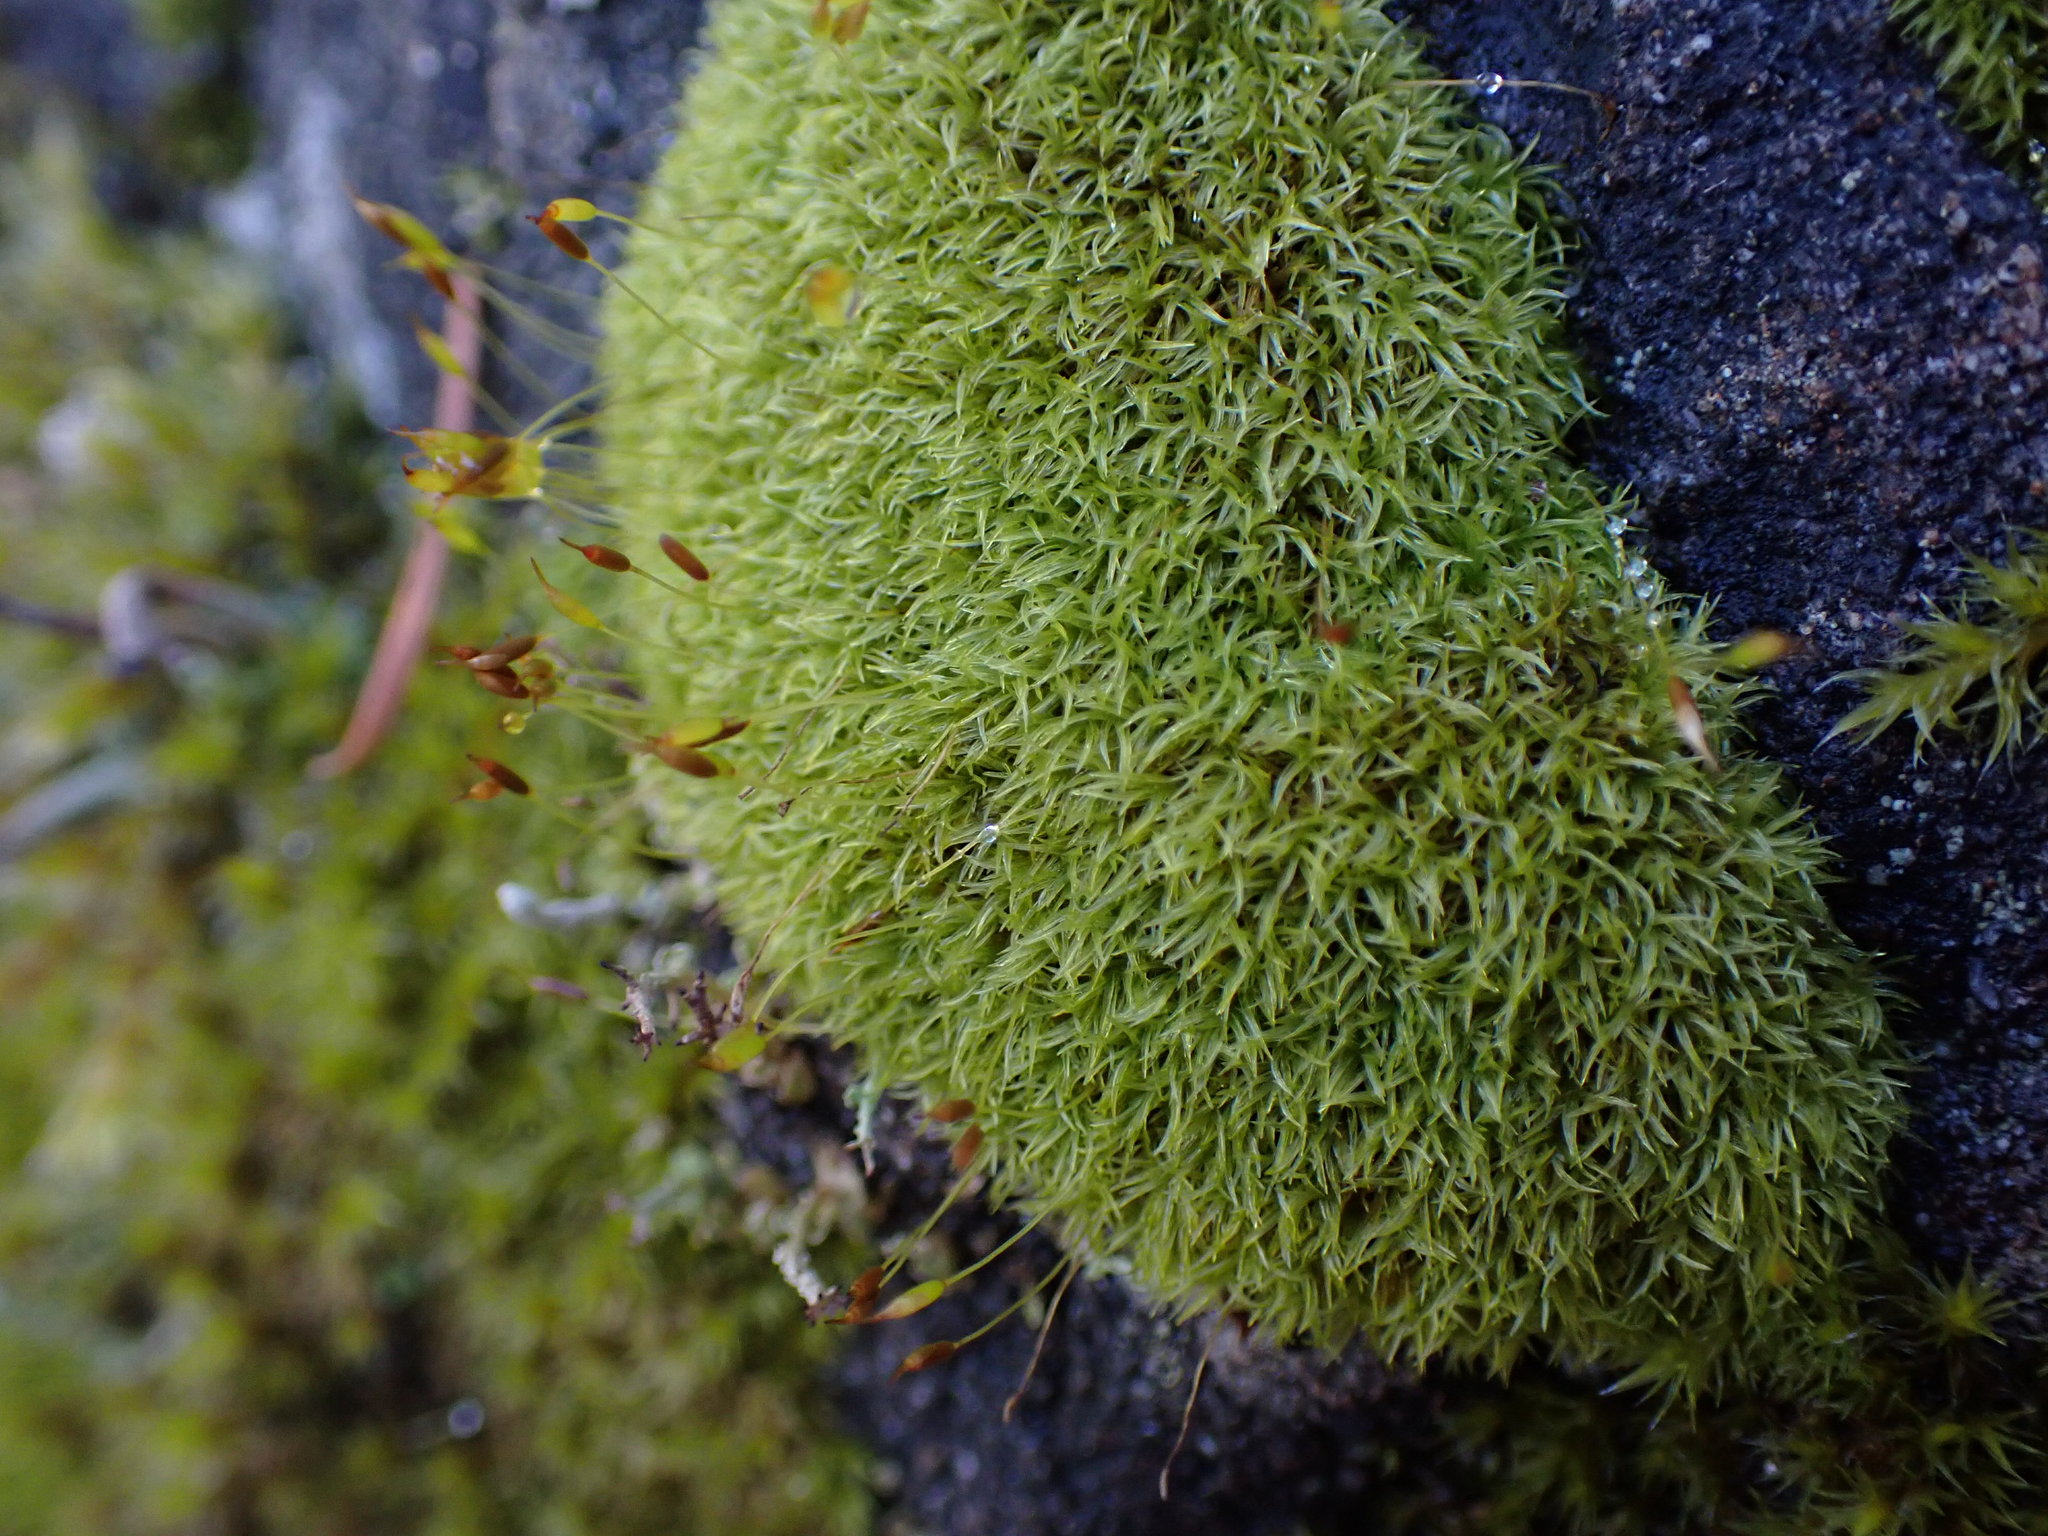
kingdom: Plantae
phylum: Bryophyta
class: Bryopsida
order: Scouleriales
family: Hymenolomataceae
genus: Hymenoloma
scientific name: Hymenoloma crispulum
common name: Mountain pincushion
